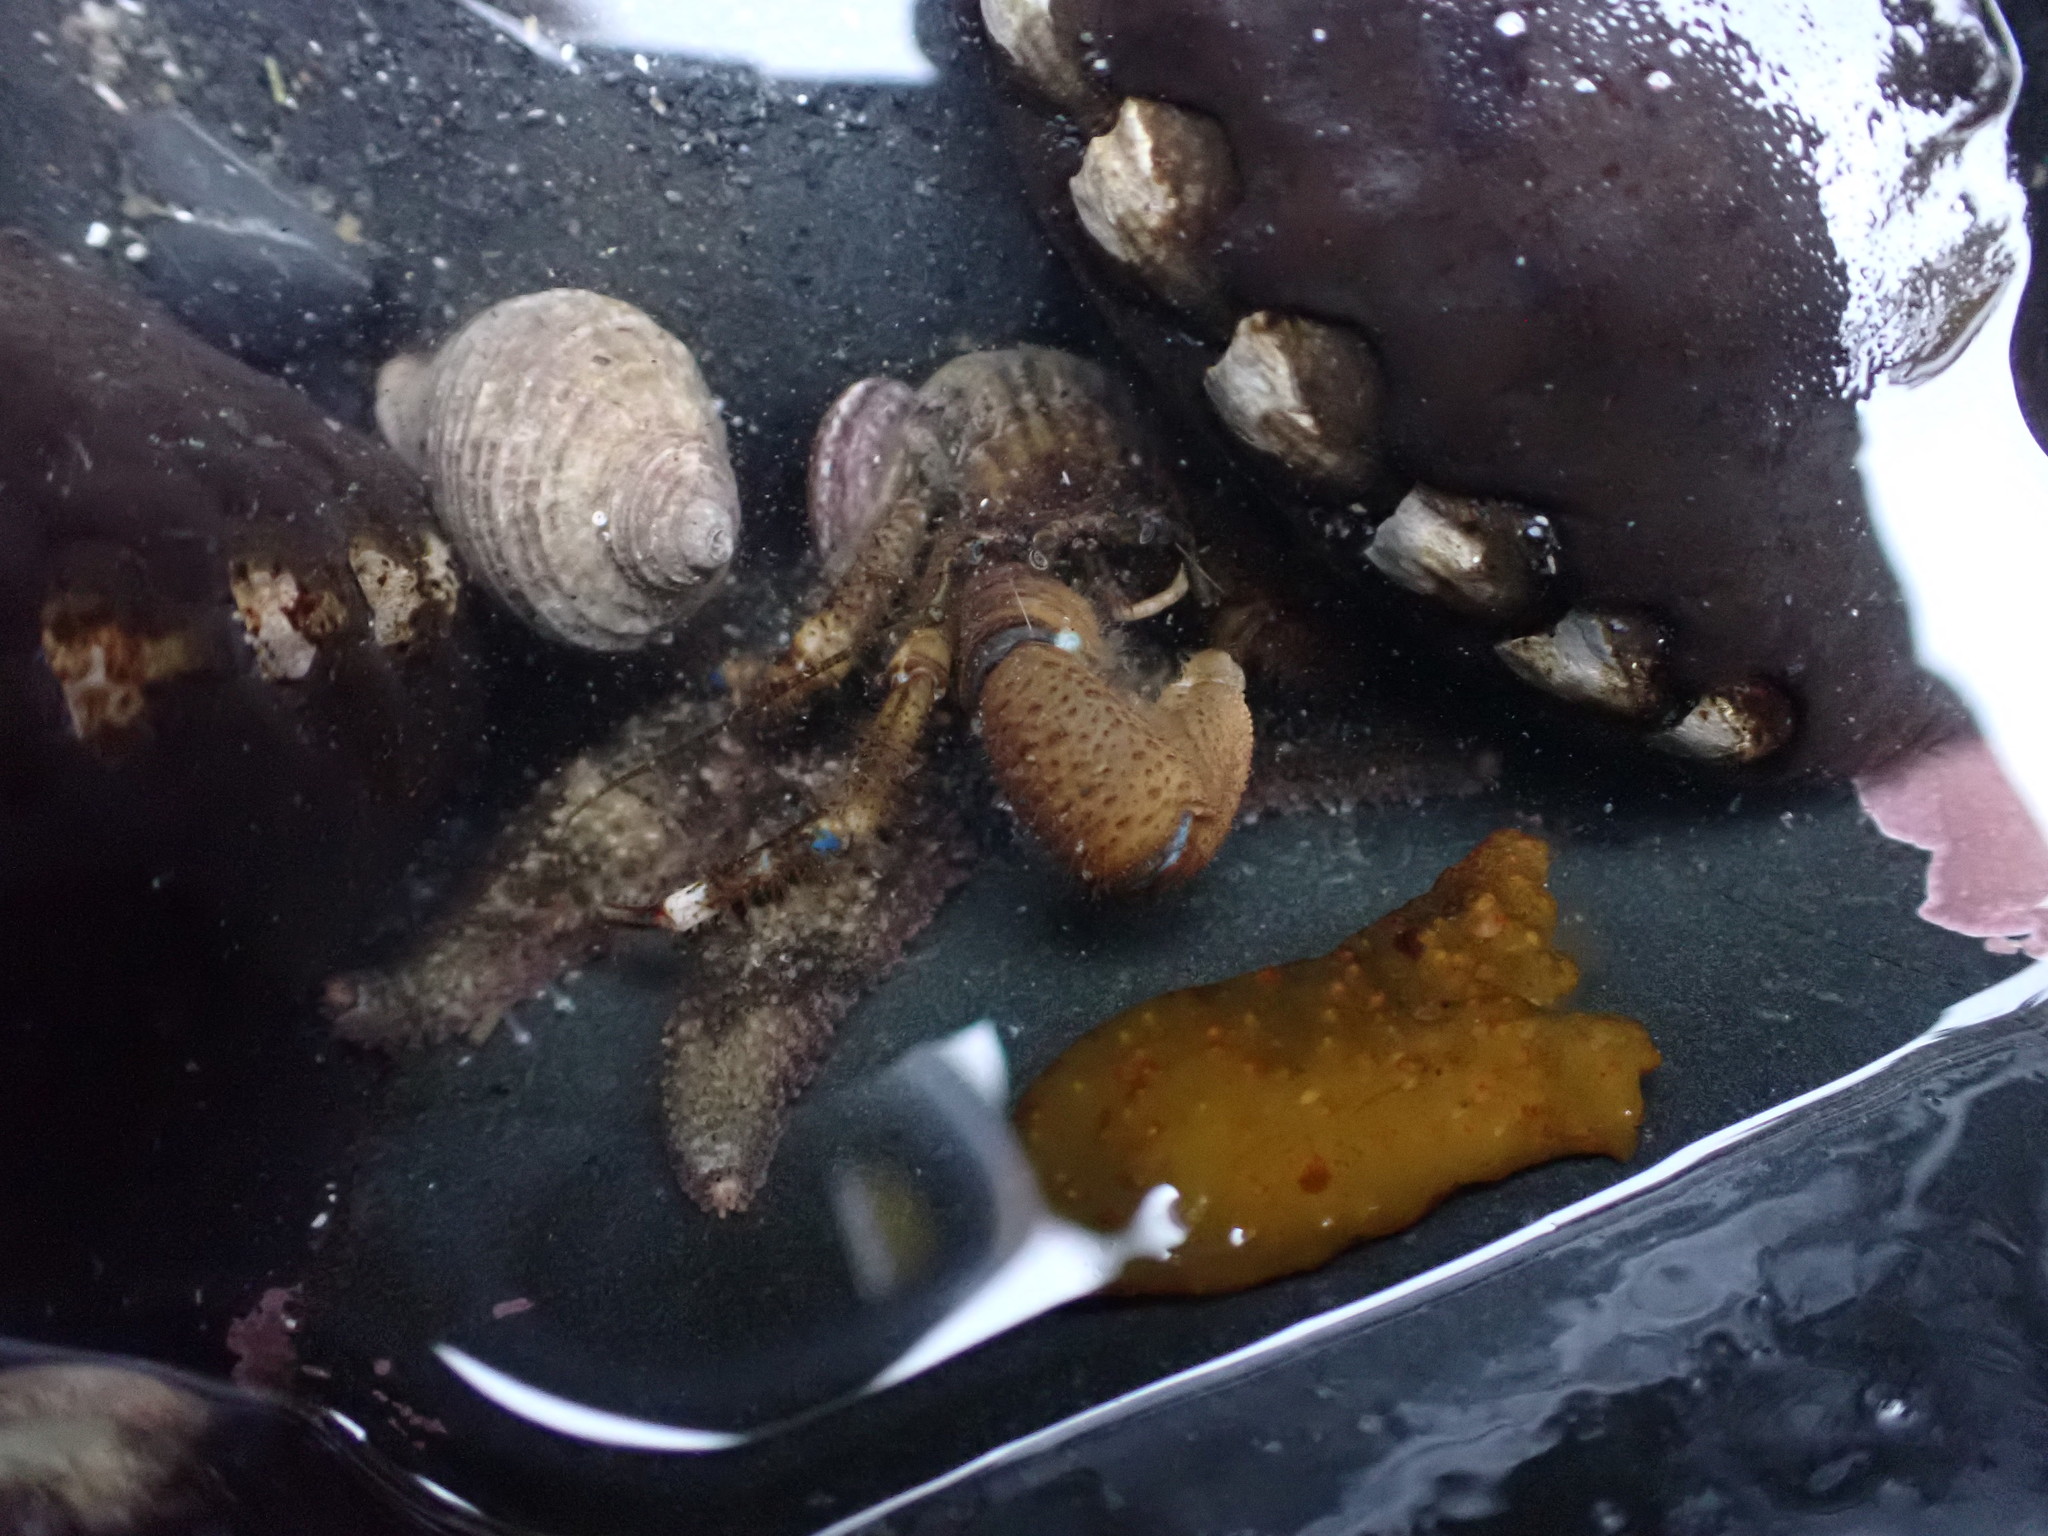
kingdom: Animalia
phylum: Arthropoda
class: Malacostraca
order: Decapoda
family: Paguridae
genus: Pagurus
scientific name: Pagurus hirsutiusculus
